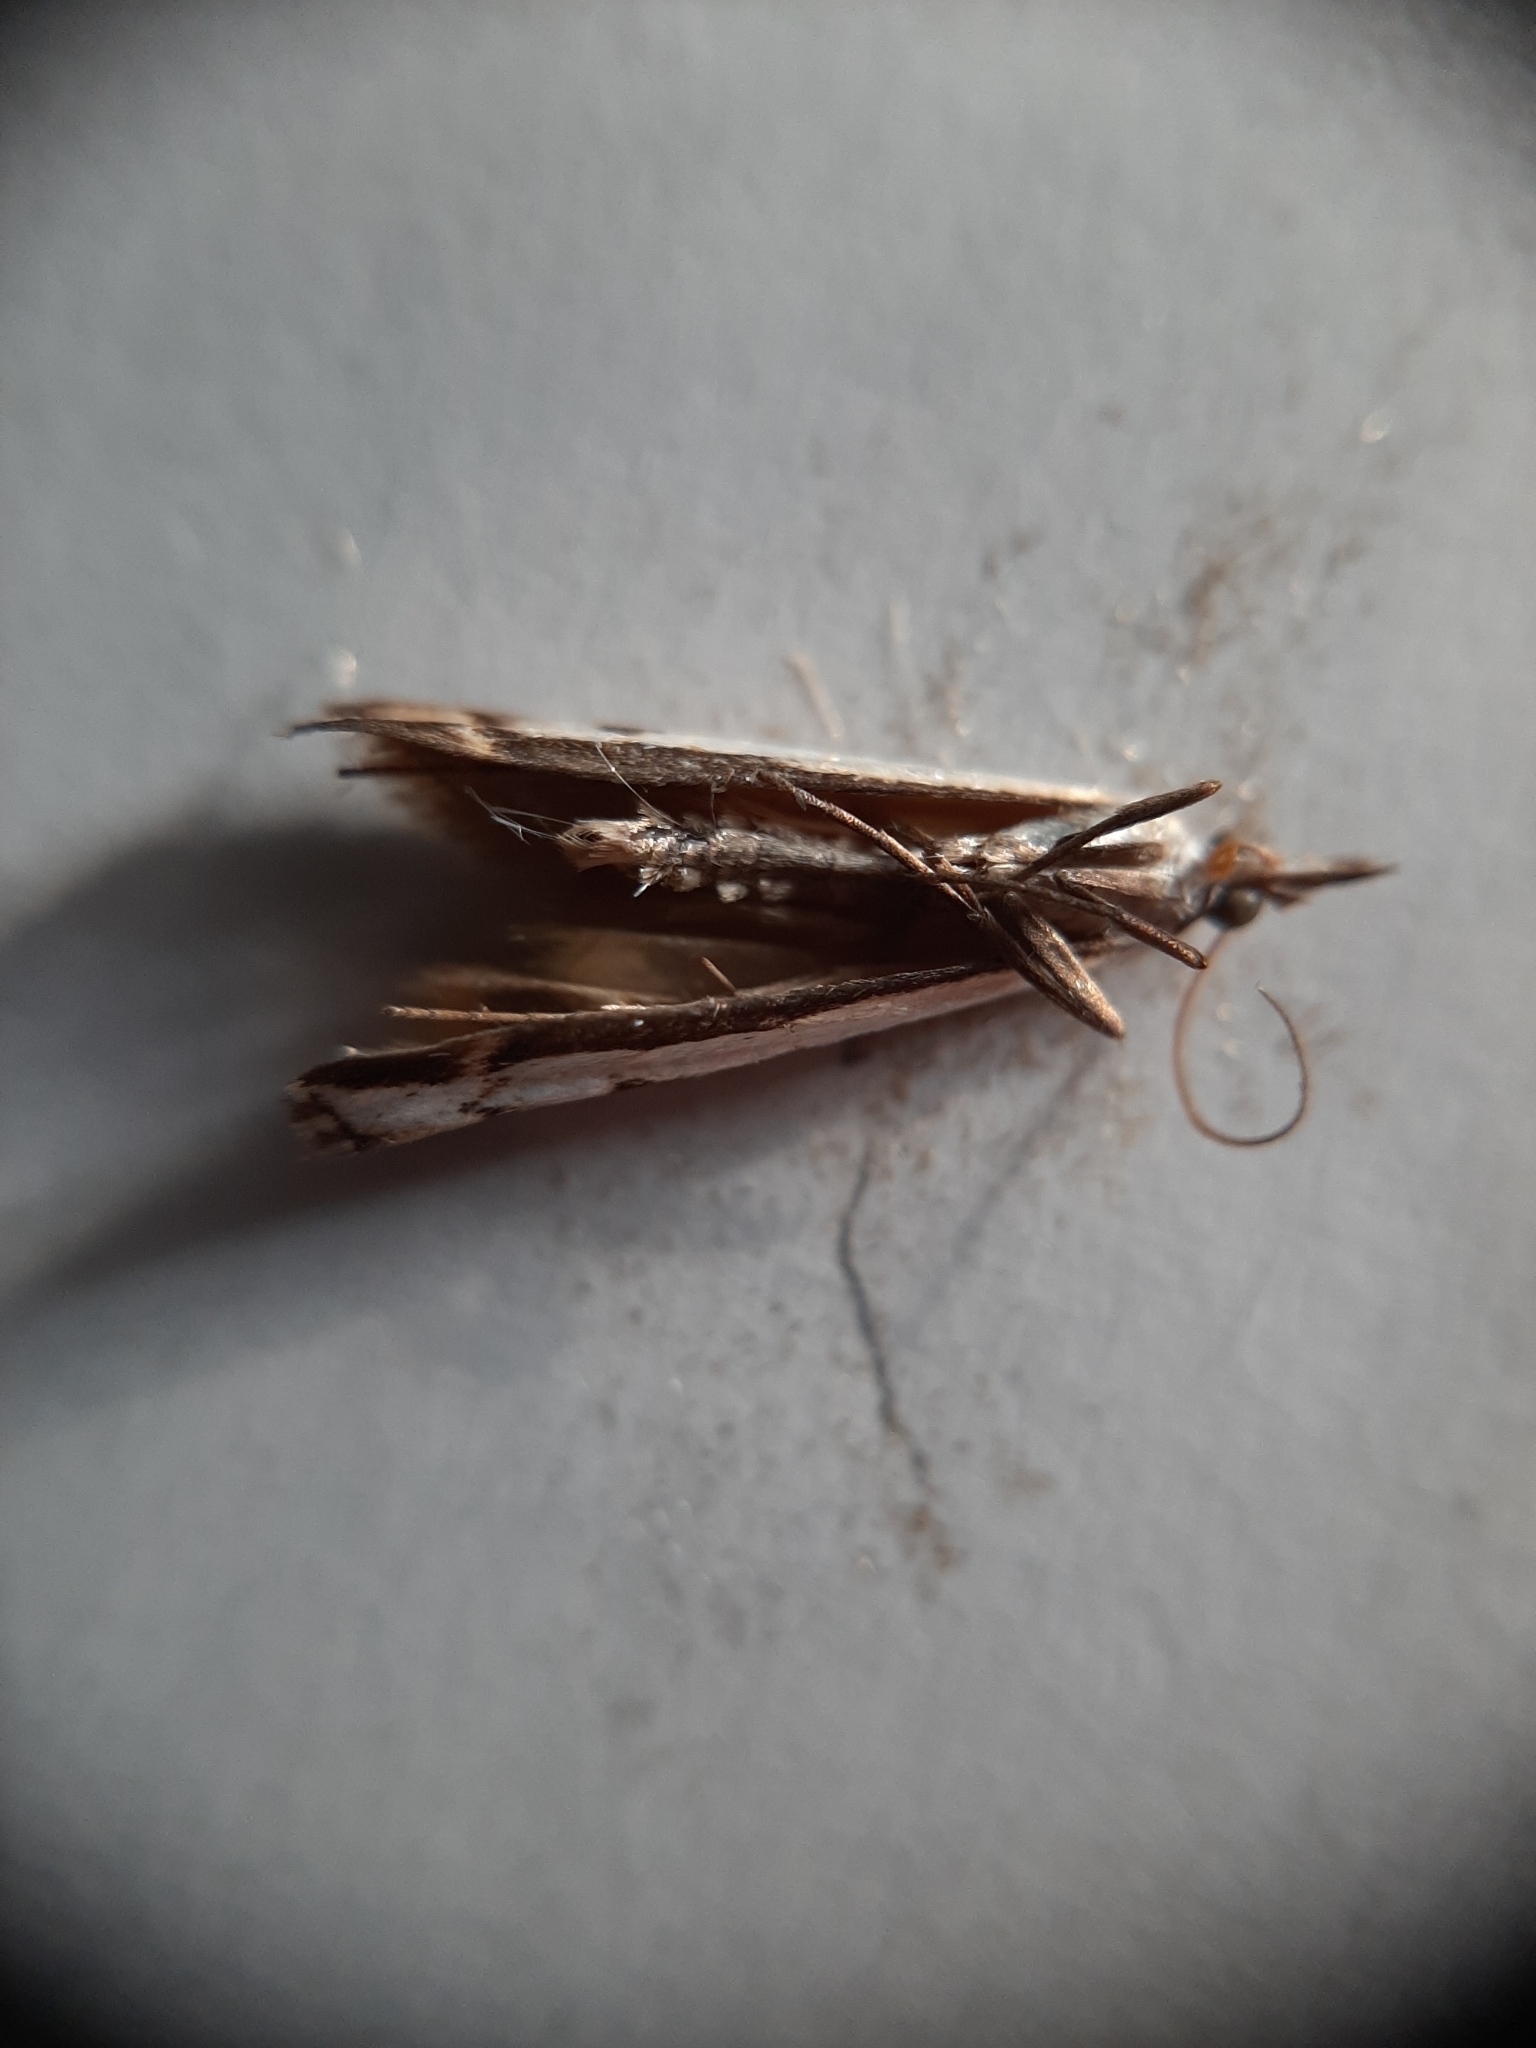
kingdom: Animalia
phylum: Arthropoda
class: Insecta
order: Lepidoptera
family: Crambidae
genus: Orocrambus
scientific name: Orocrambus flexuosellus
